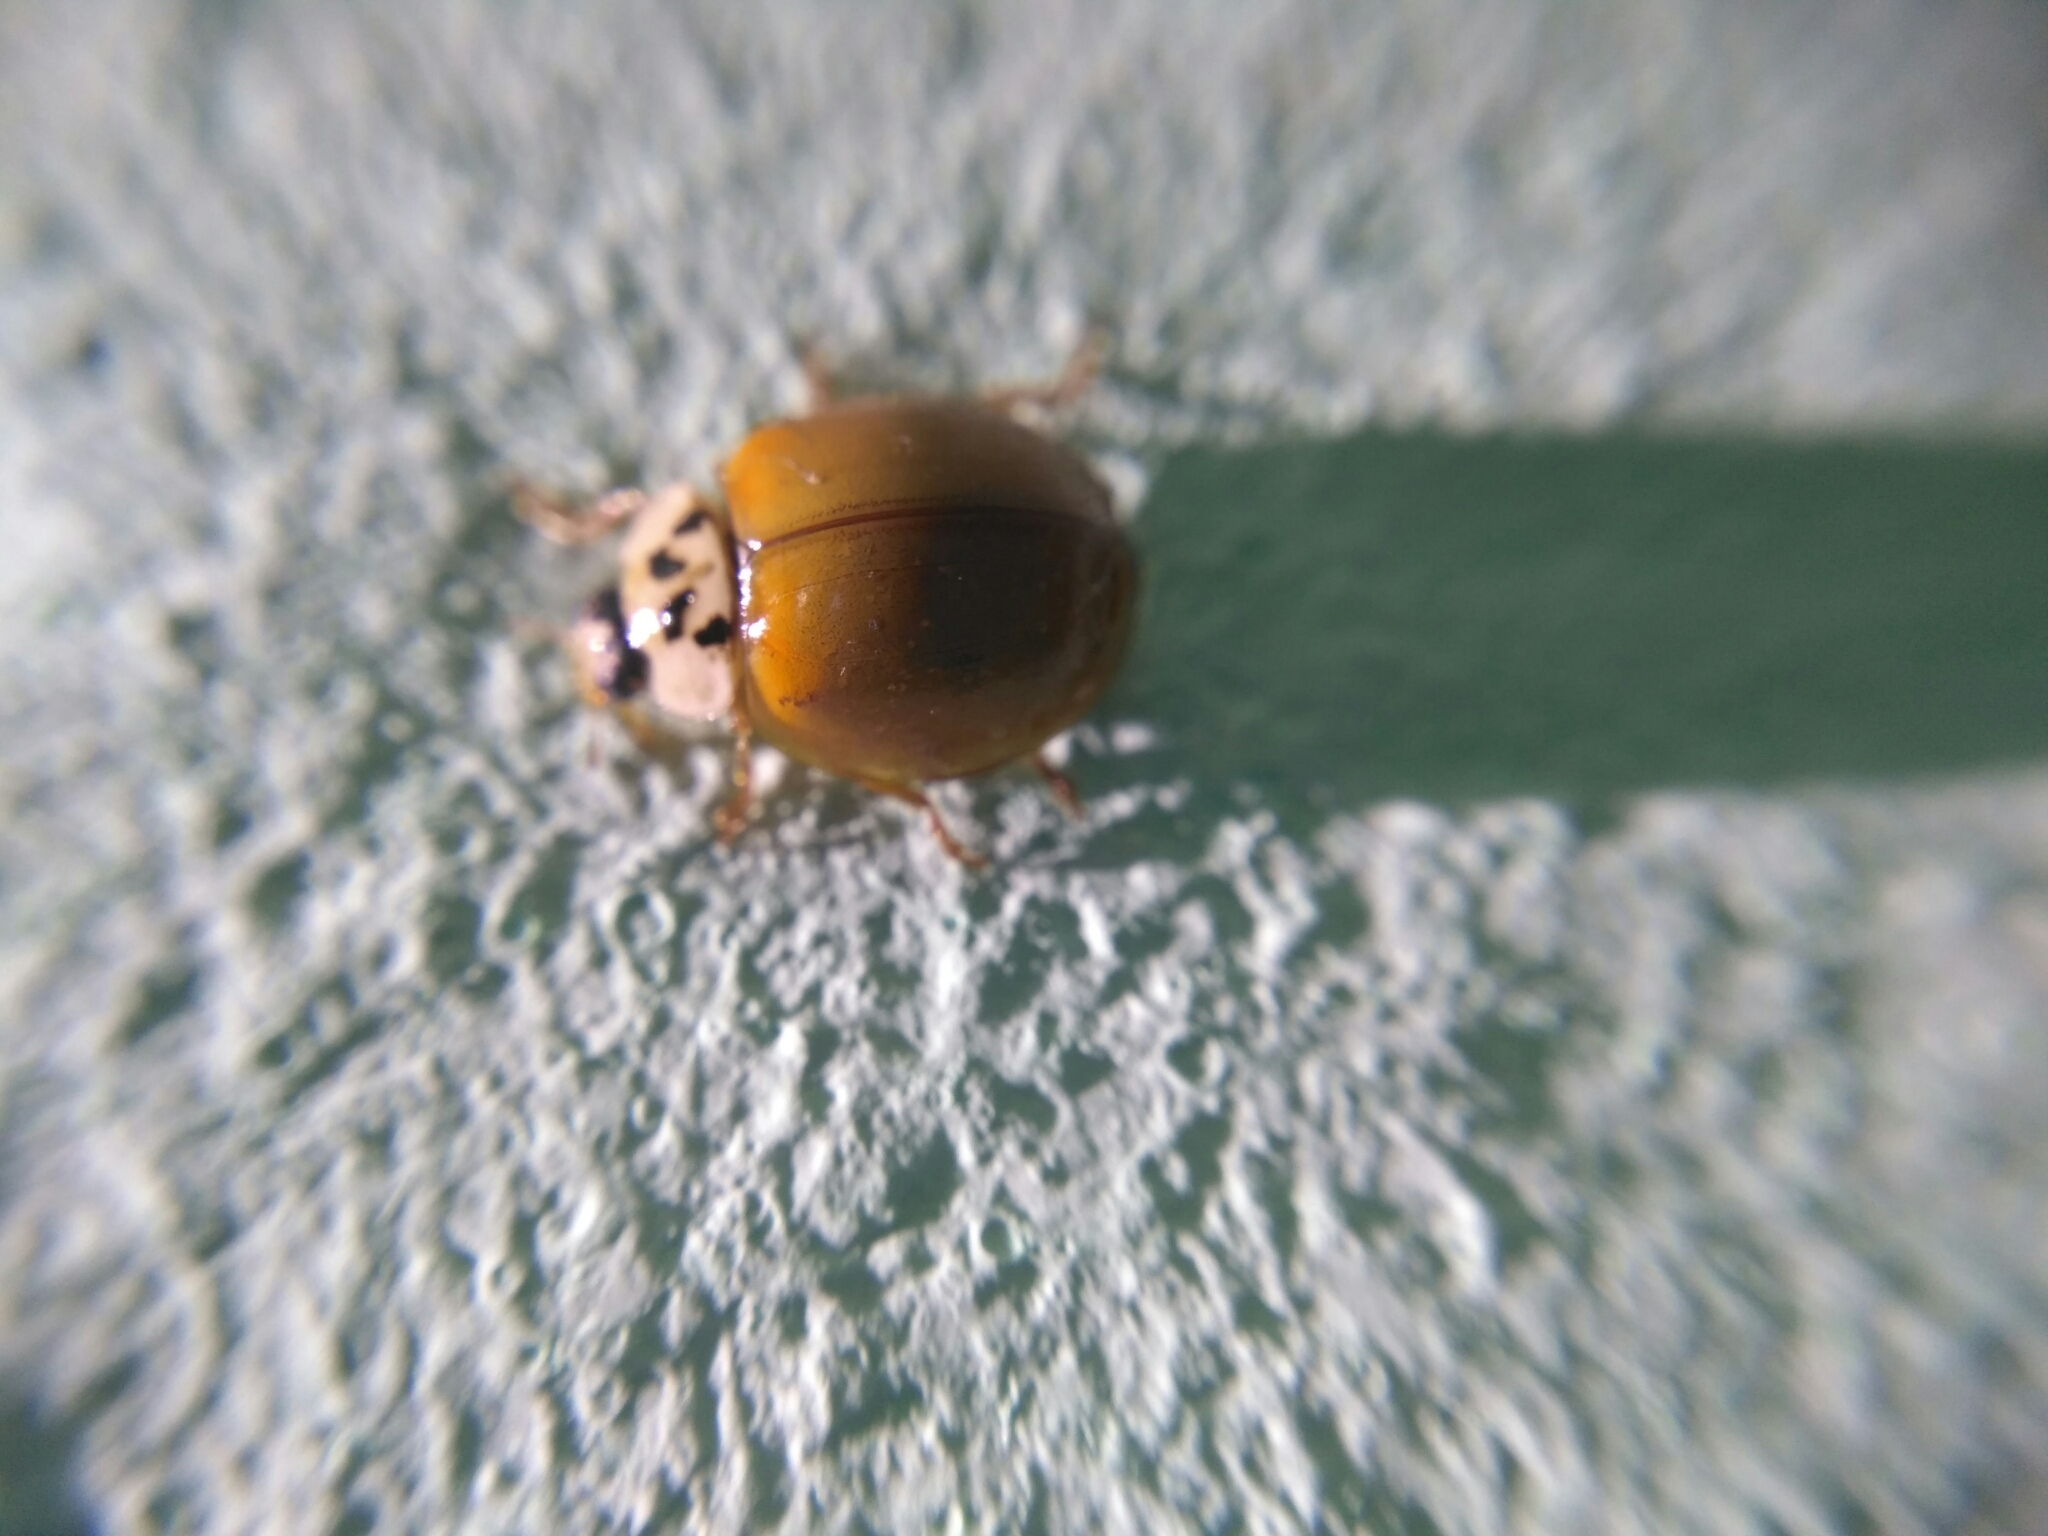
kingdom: Animalia
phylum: Arthropoda
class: Insecta
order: Coleoptera
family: Coccinellidae
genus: Harmonia
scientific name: Harmonia axyridis
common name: Harlequin ladybird
